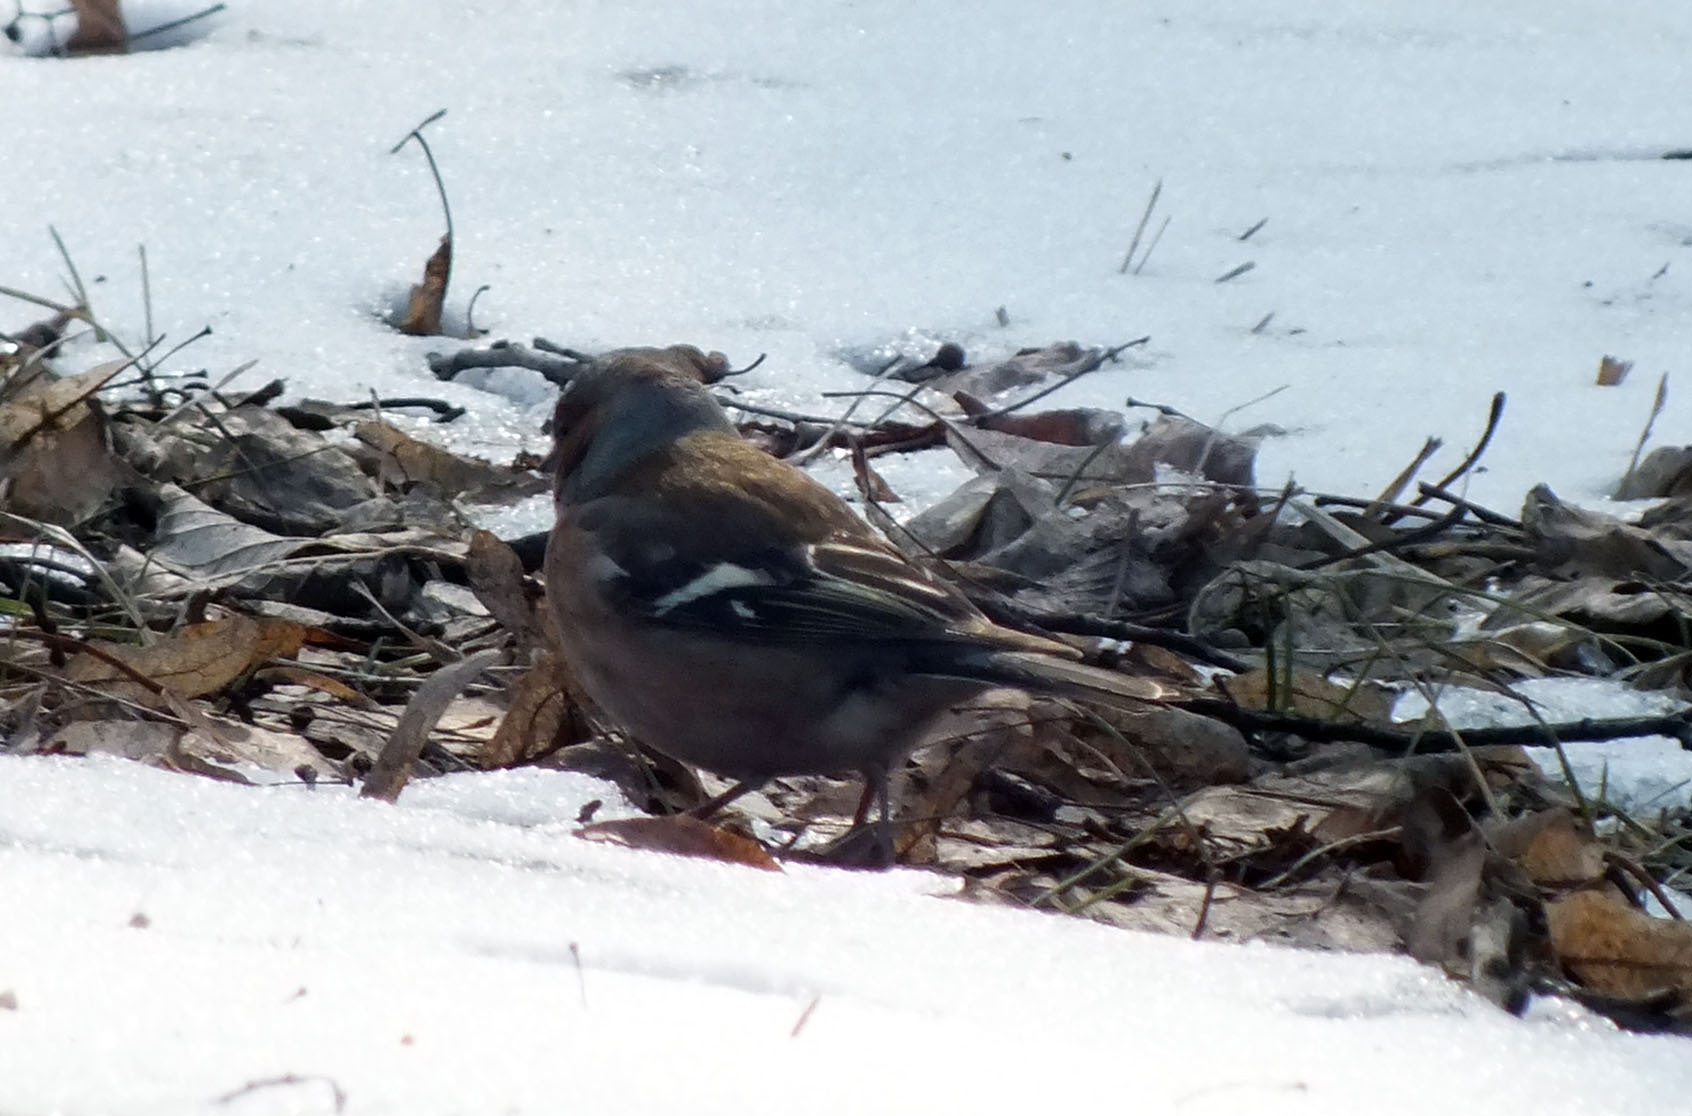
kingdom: Animalia
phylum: Chordata
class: Aves
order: Passeriformes
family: Fringillidae
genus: Fringilla
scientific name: Fringilla coelebs
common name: Common chaffinch
